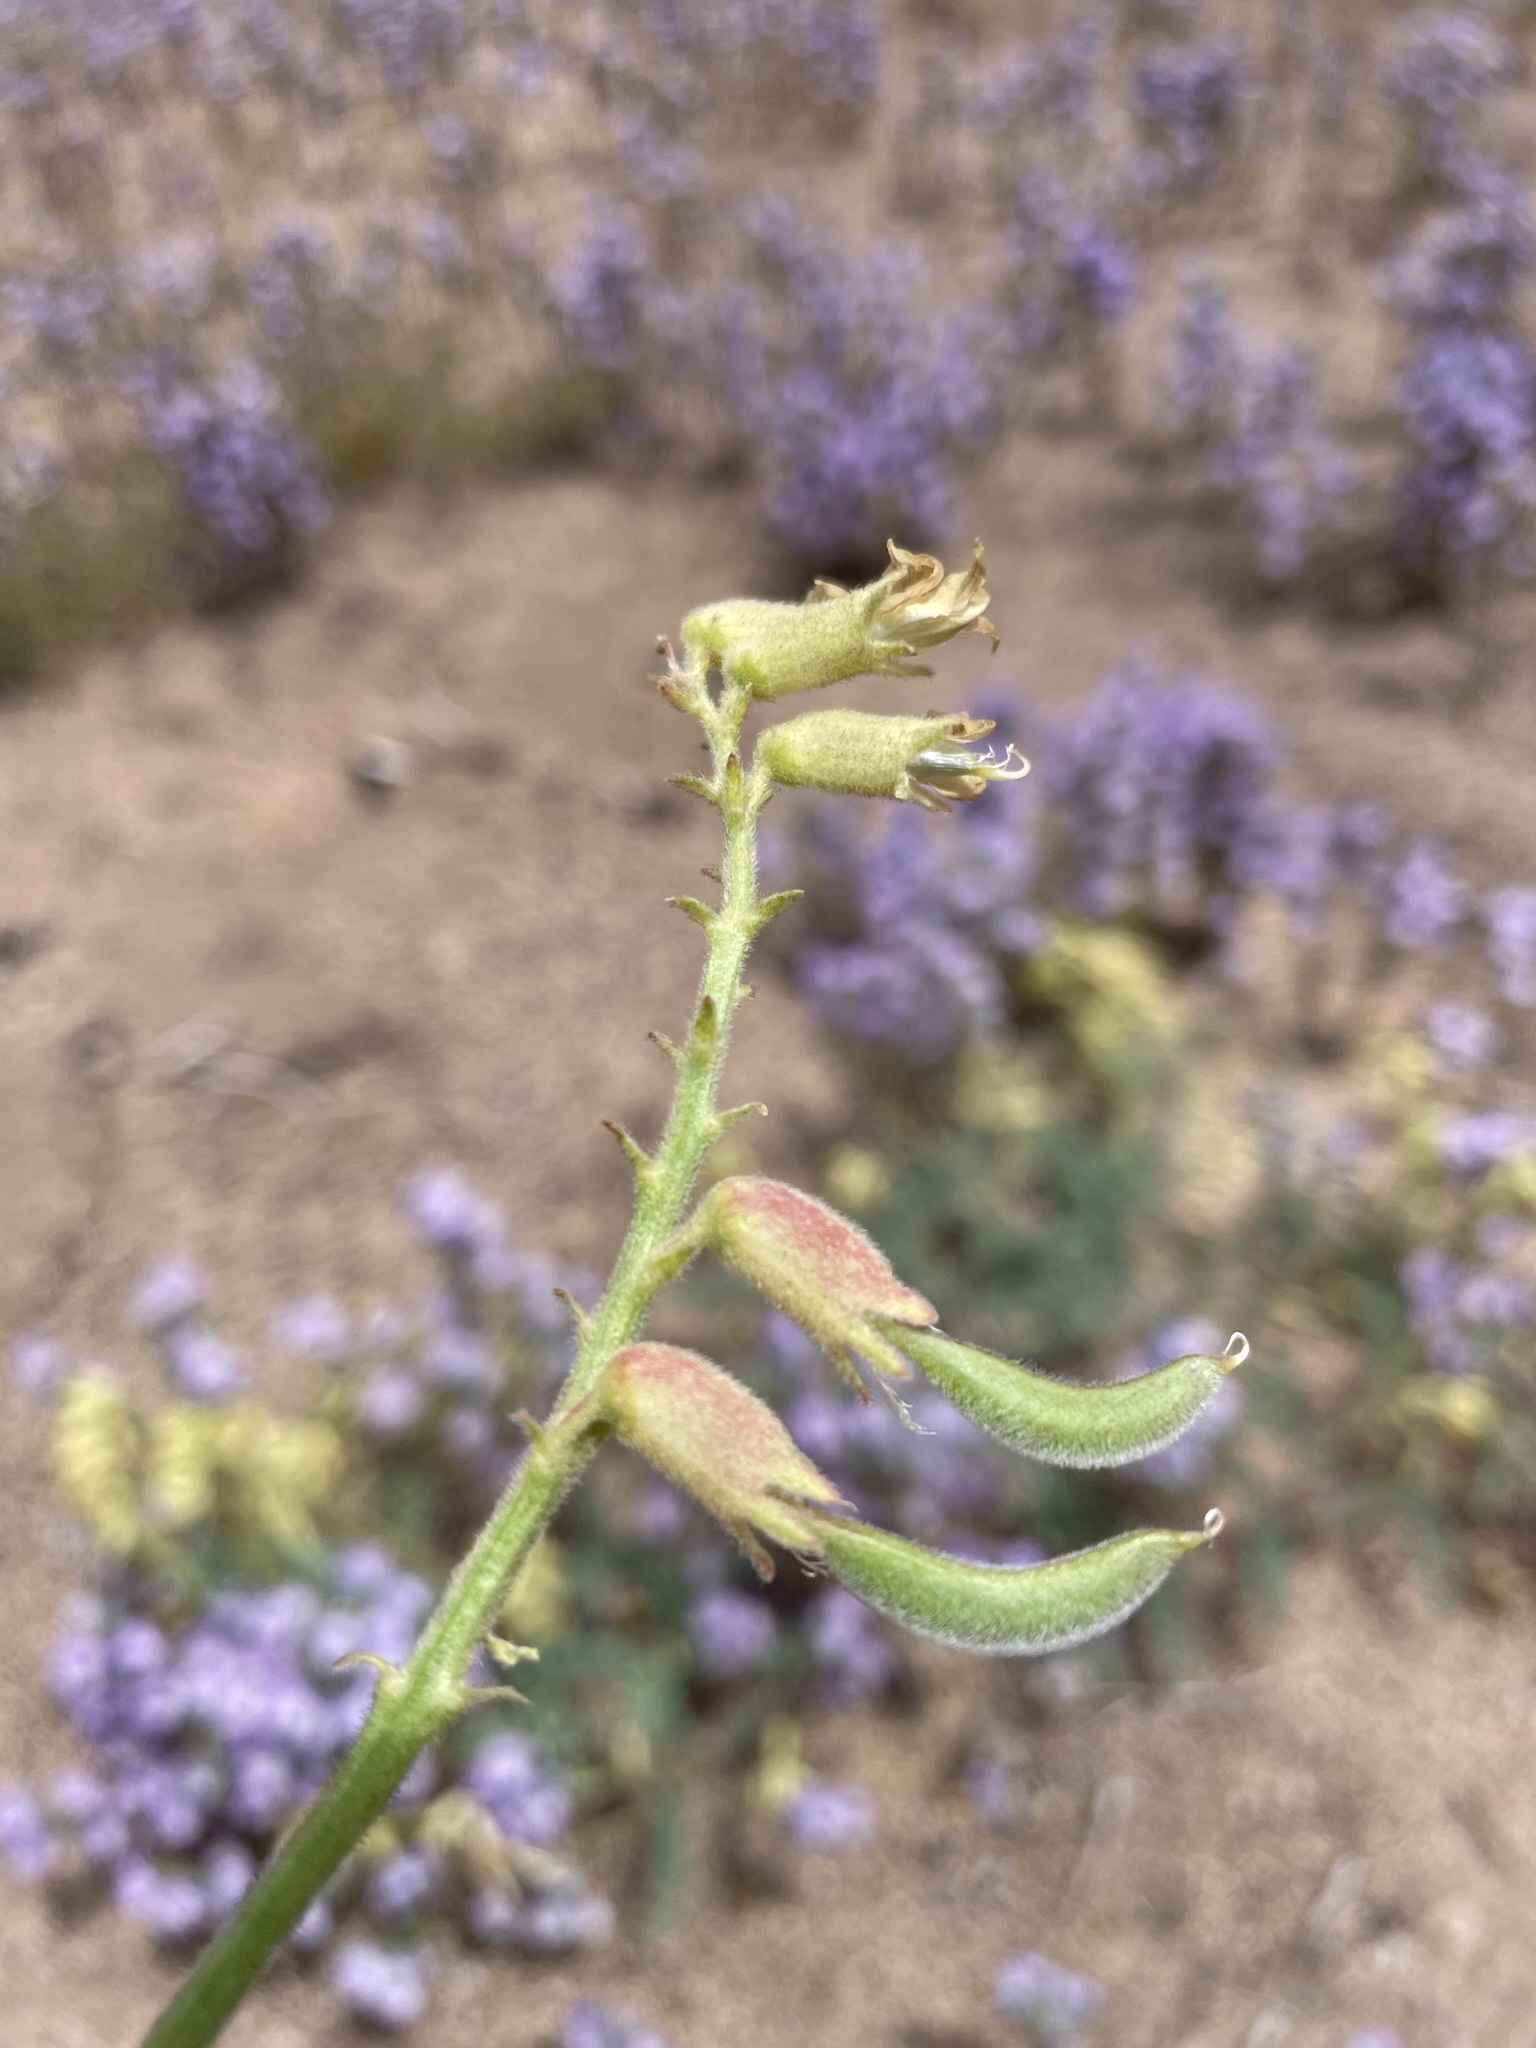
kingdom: Plantae
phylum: Tracheophyta
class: Magnoliopsida
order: Fabales
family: Fabaceae
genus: Astragalus
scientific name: Astragalus gibbsii
